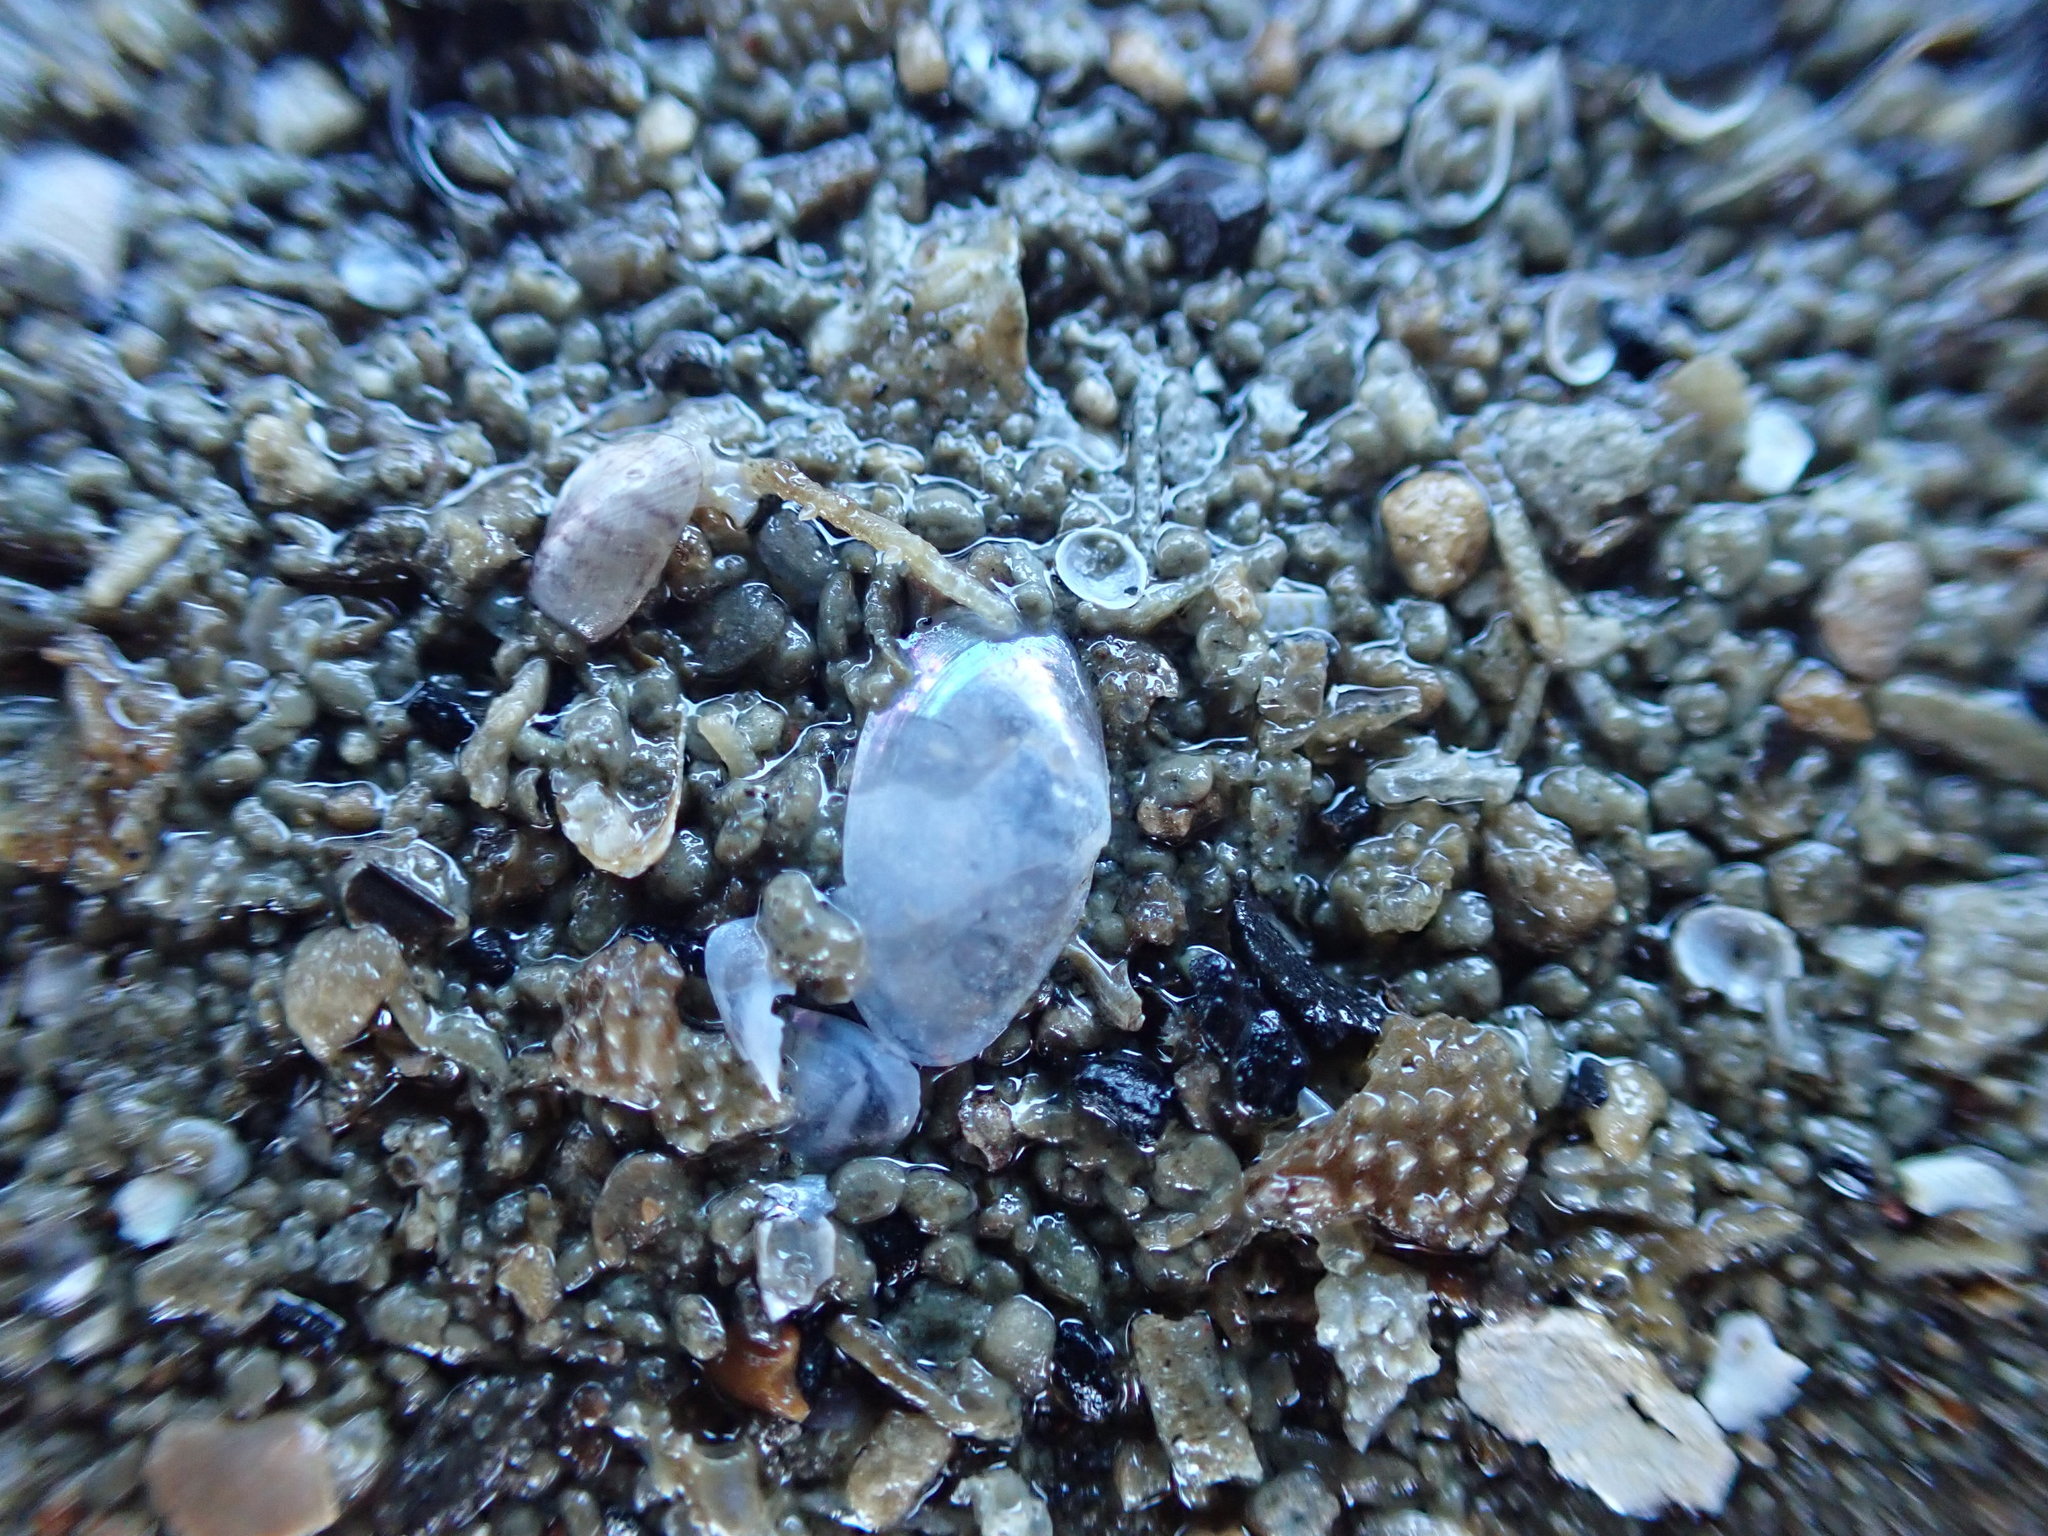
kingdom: Animalia
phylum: Mollusca
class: Bivalvia
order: Cardiida
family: Semelidae
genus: Theora
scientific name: Theora lubrica
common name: Asian semele
